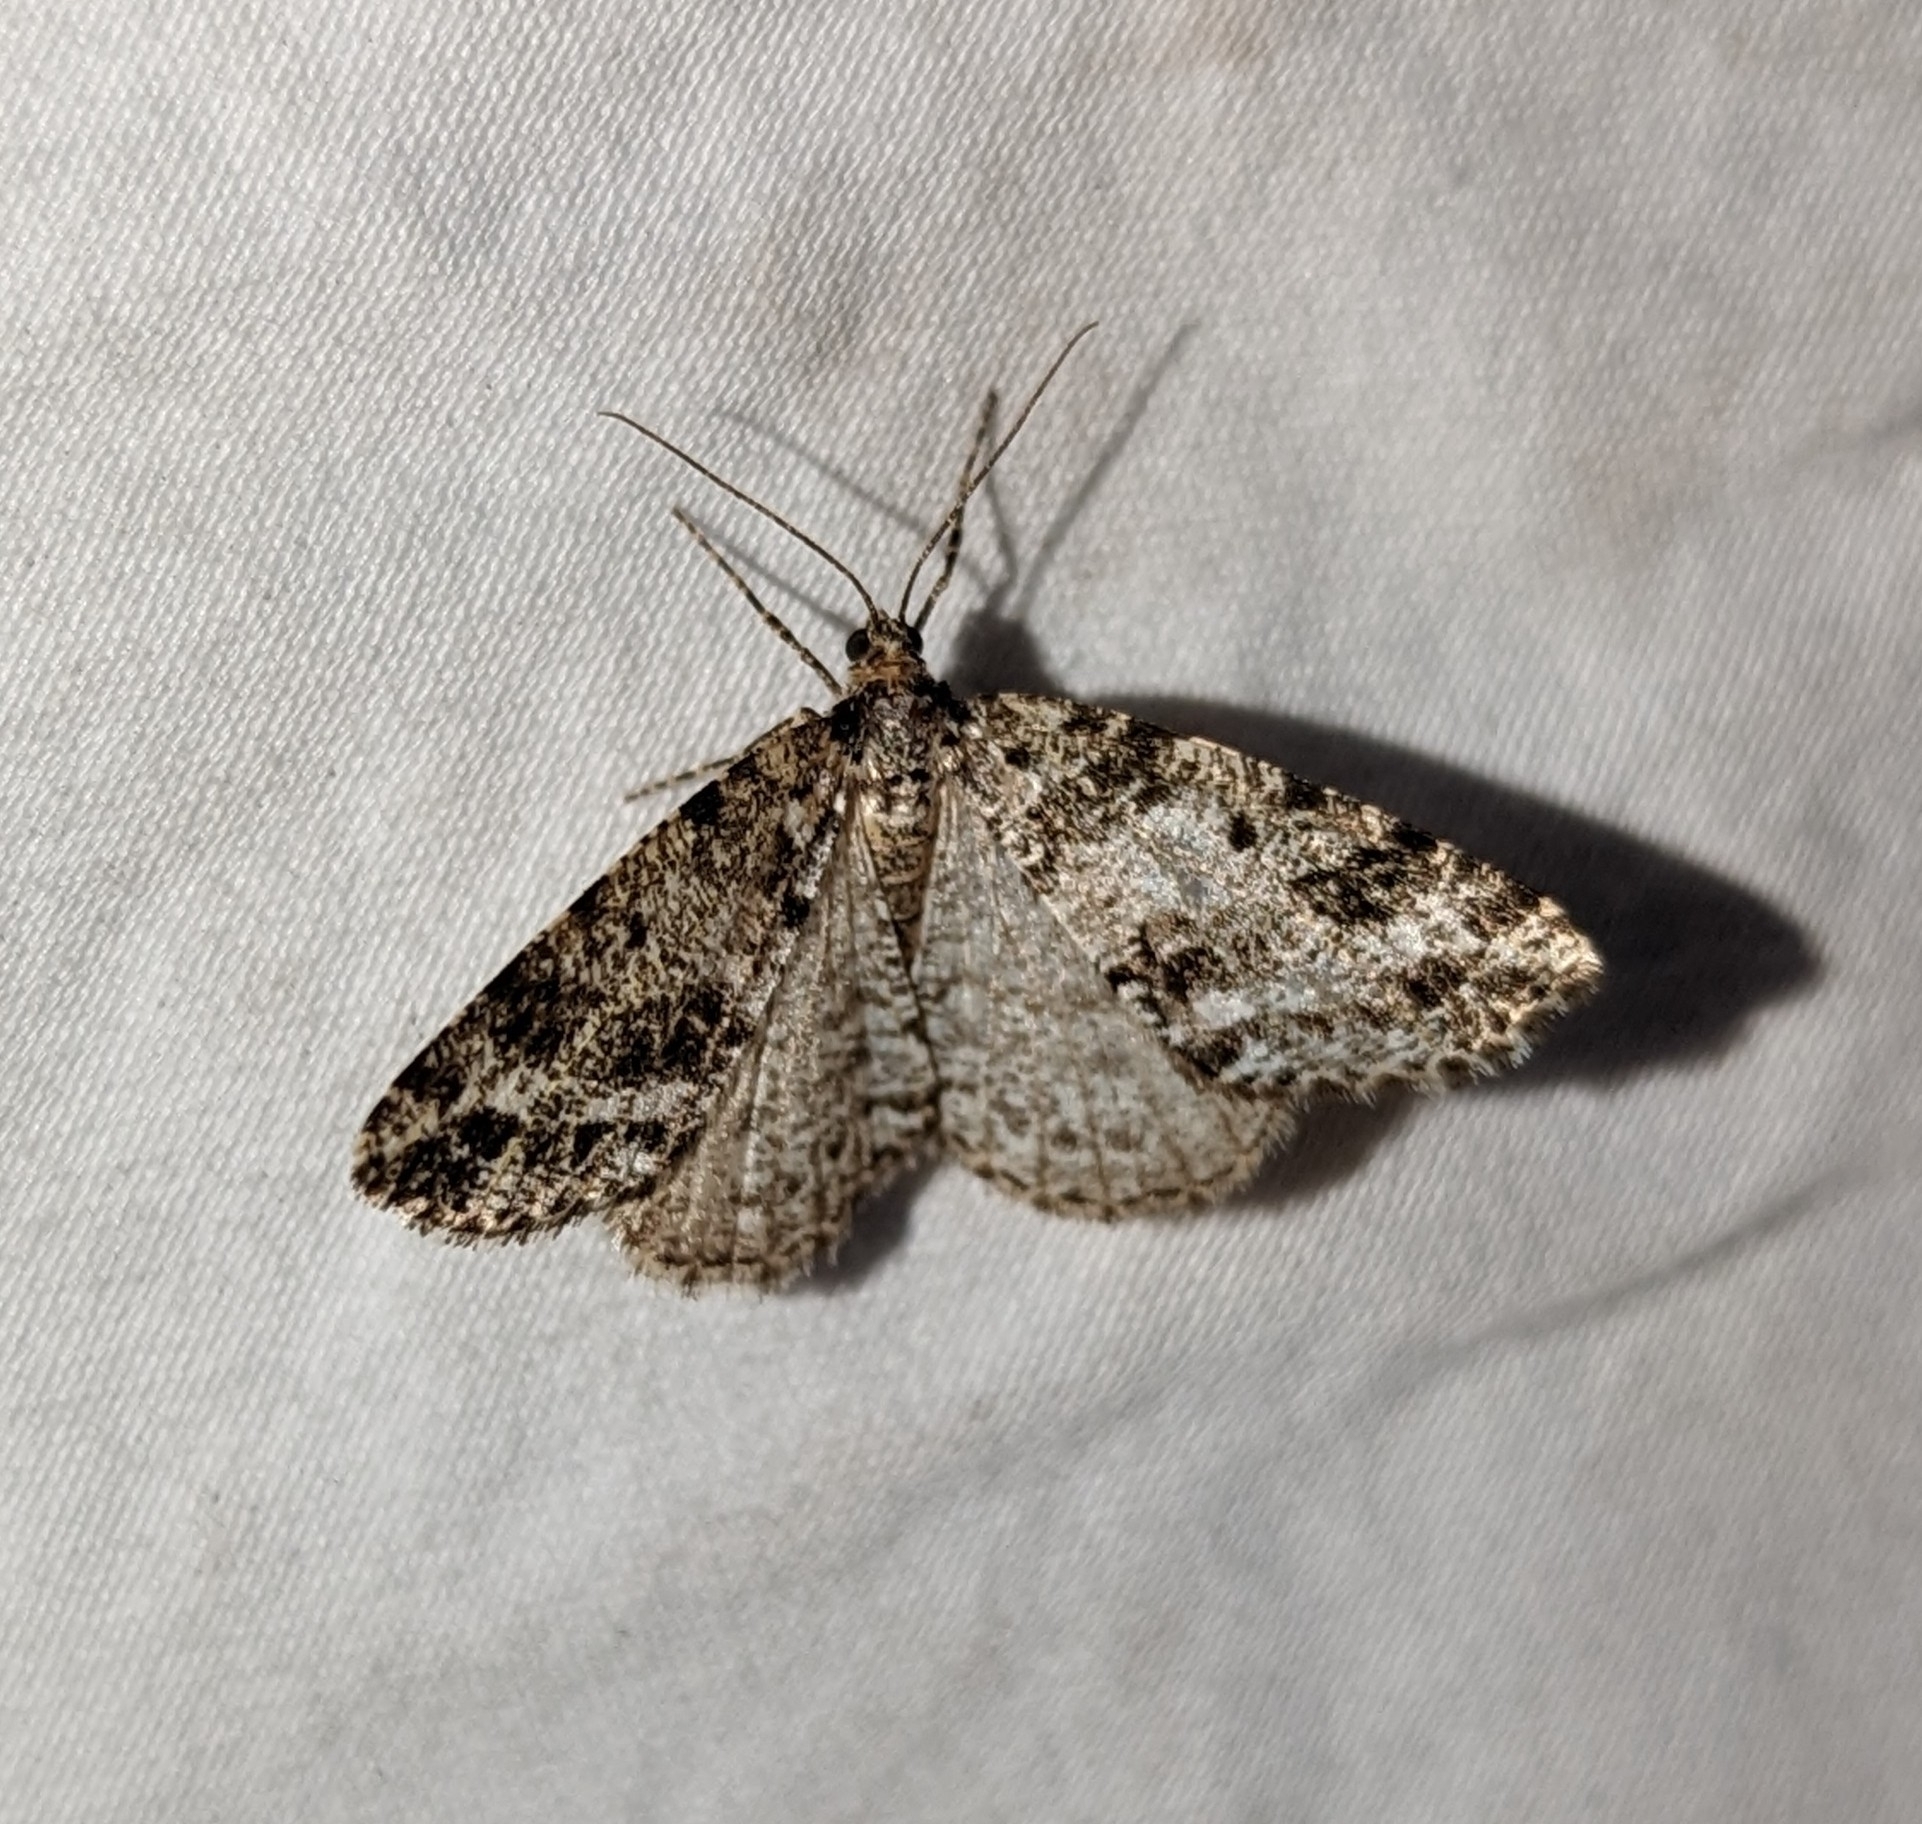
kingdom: Animalia
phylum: Arthropoda
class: Insecta
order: Lepidoptera
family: Geometridae
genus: Orthofidonia
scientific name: Orthofidonia tinctaria
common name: Marbled wave
